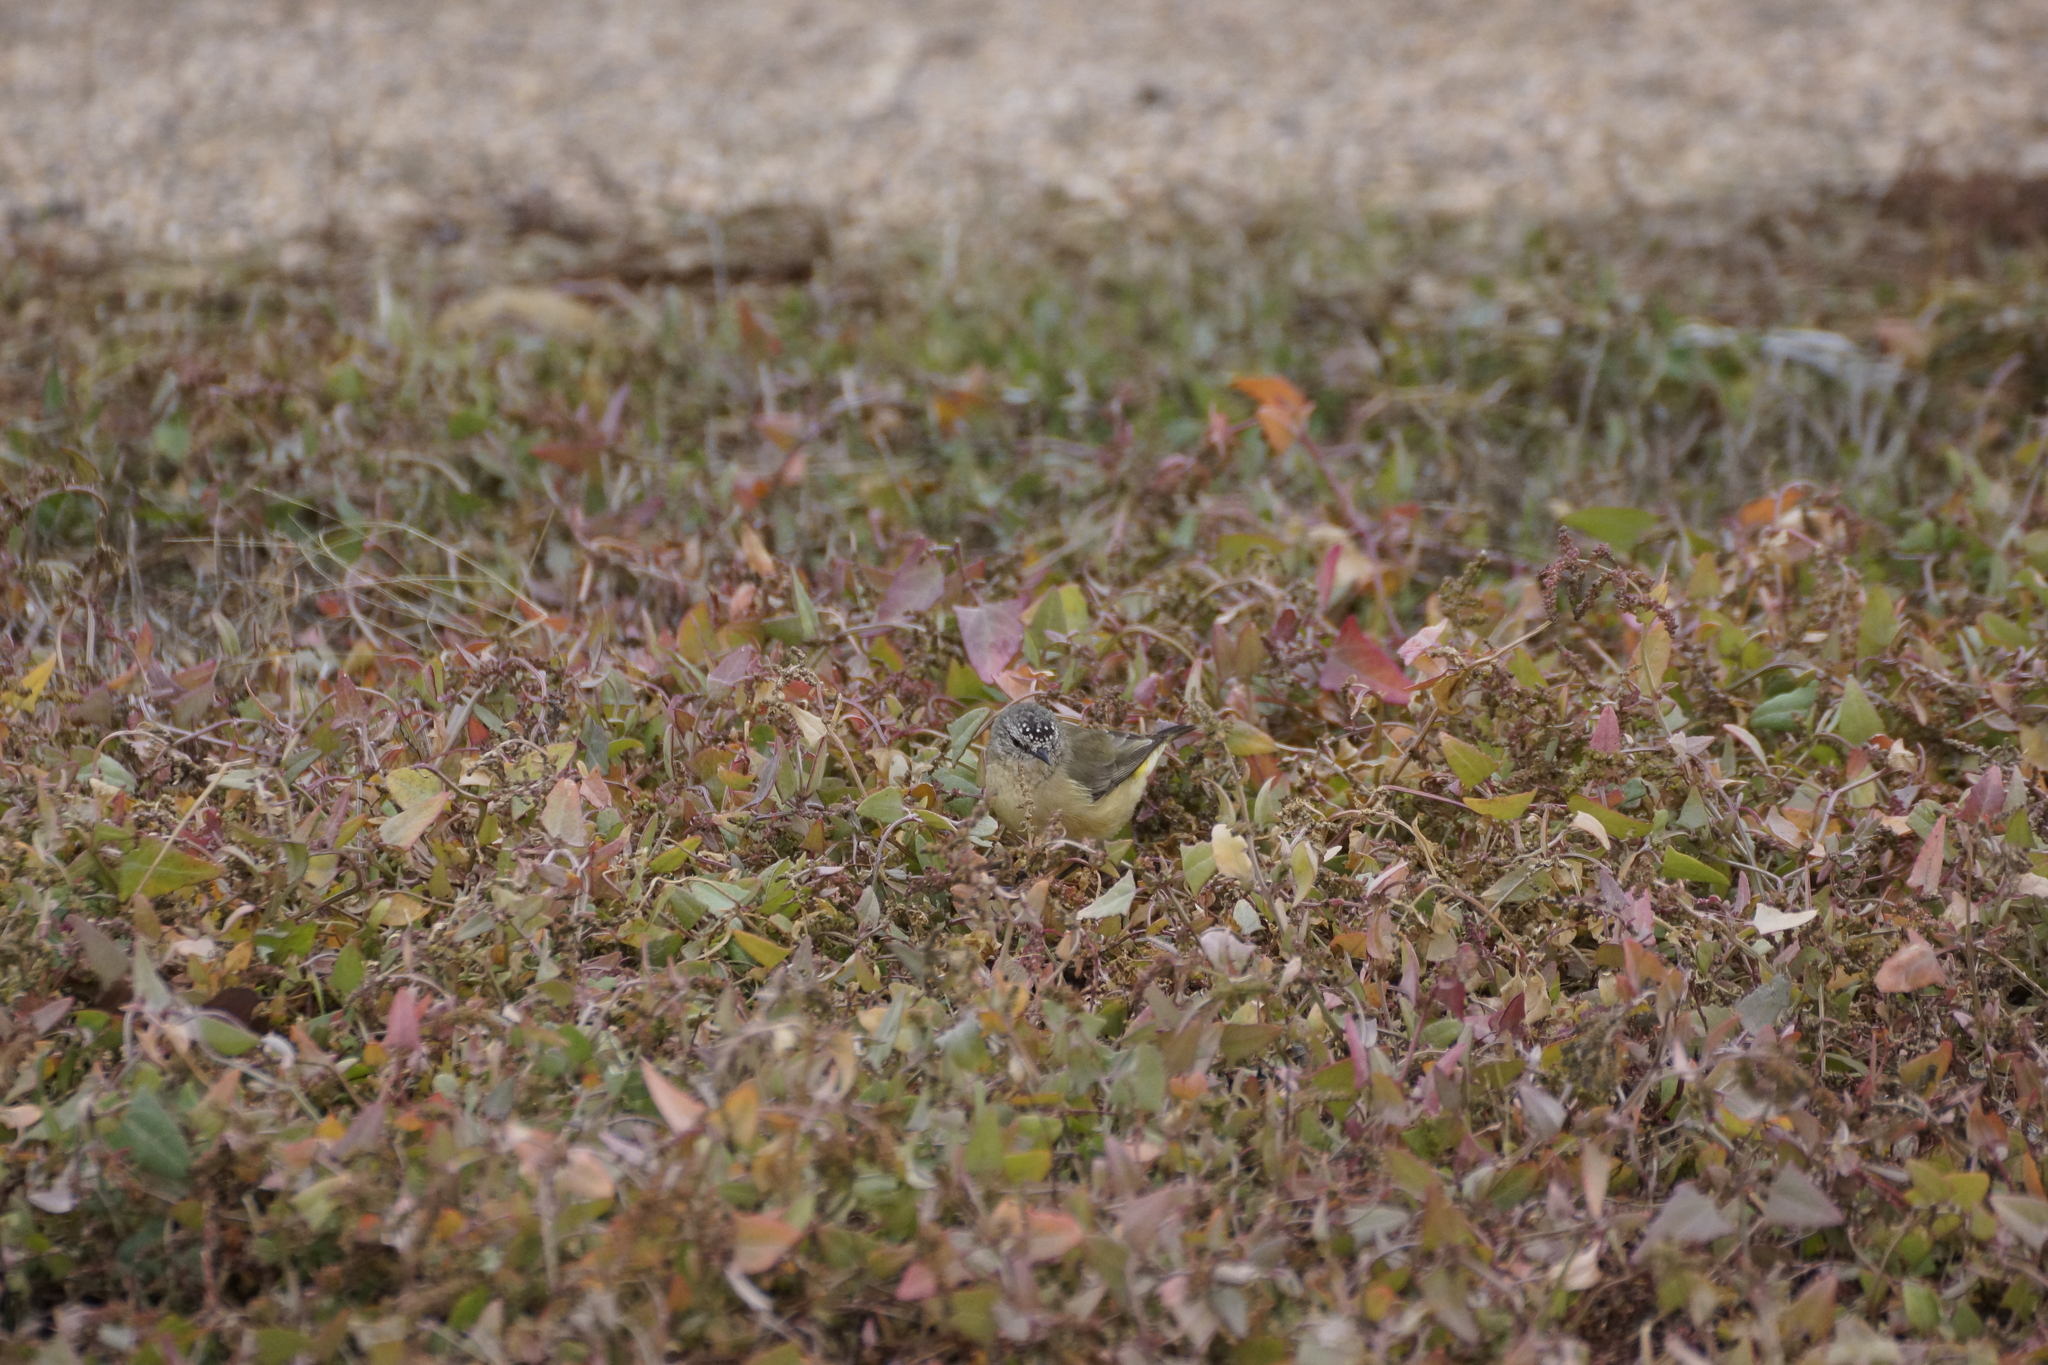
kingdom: Animalia
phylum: Chordata
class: Aves
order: Passeriformes
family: Acanthizidae
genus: Acanthiza
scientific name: Acanthiza chrysorrhoa
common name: Yellow-rumped thornbill
